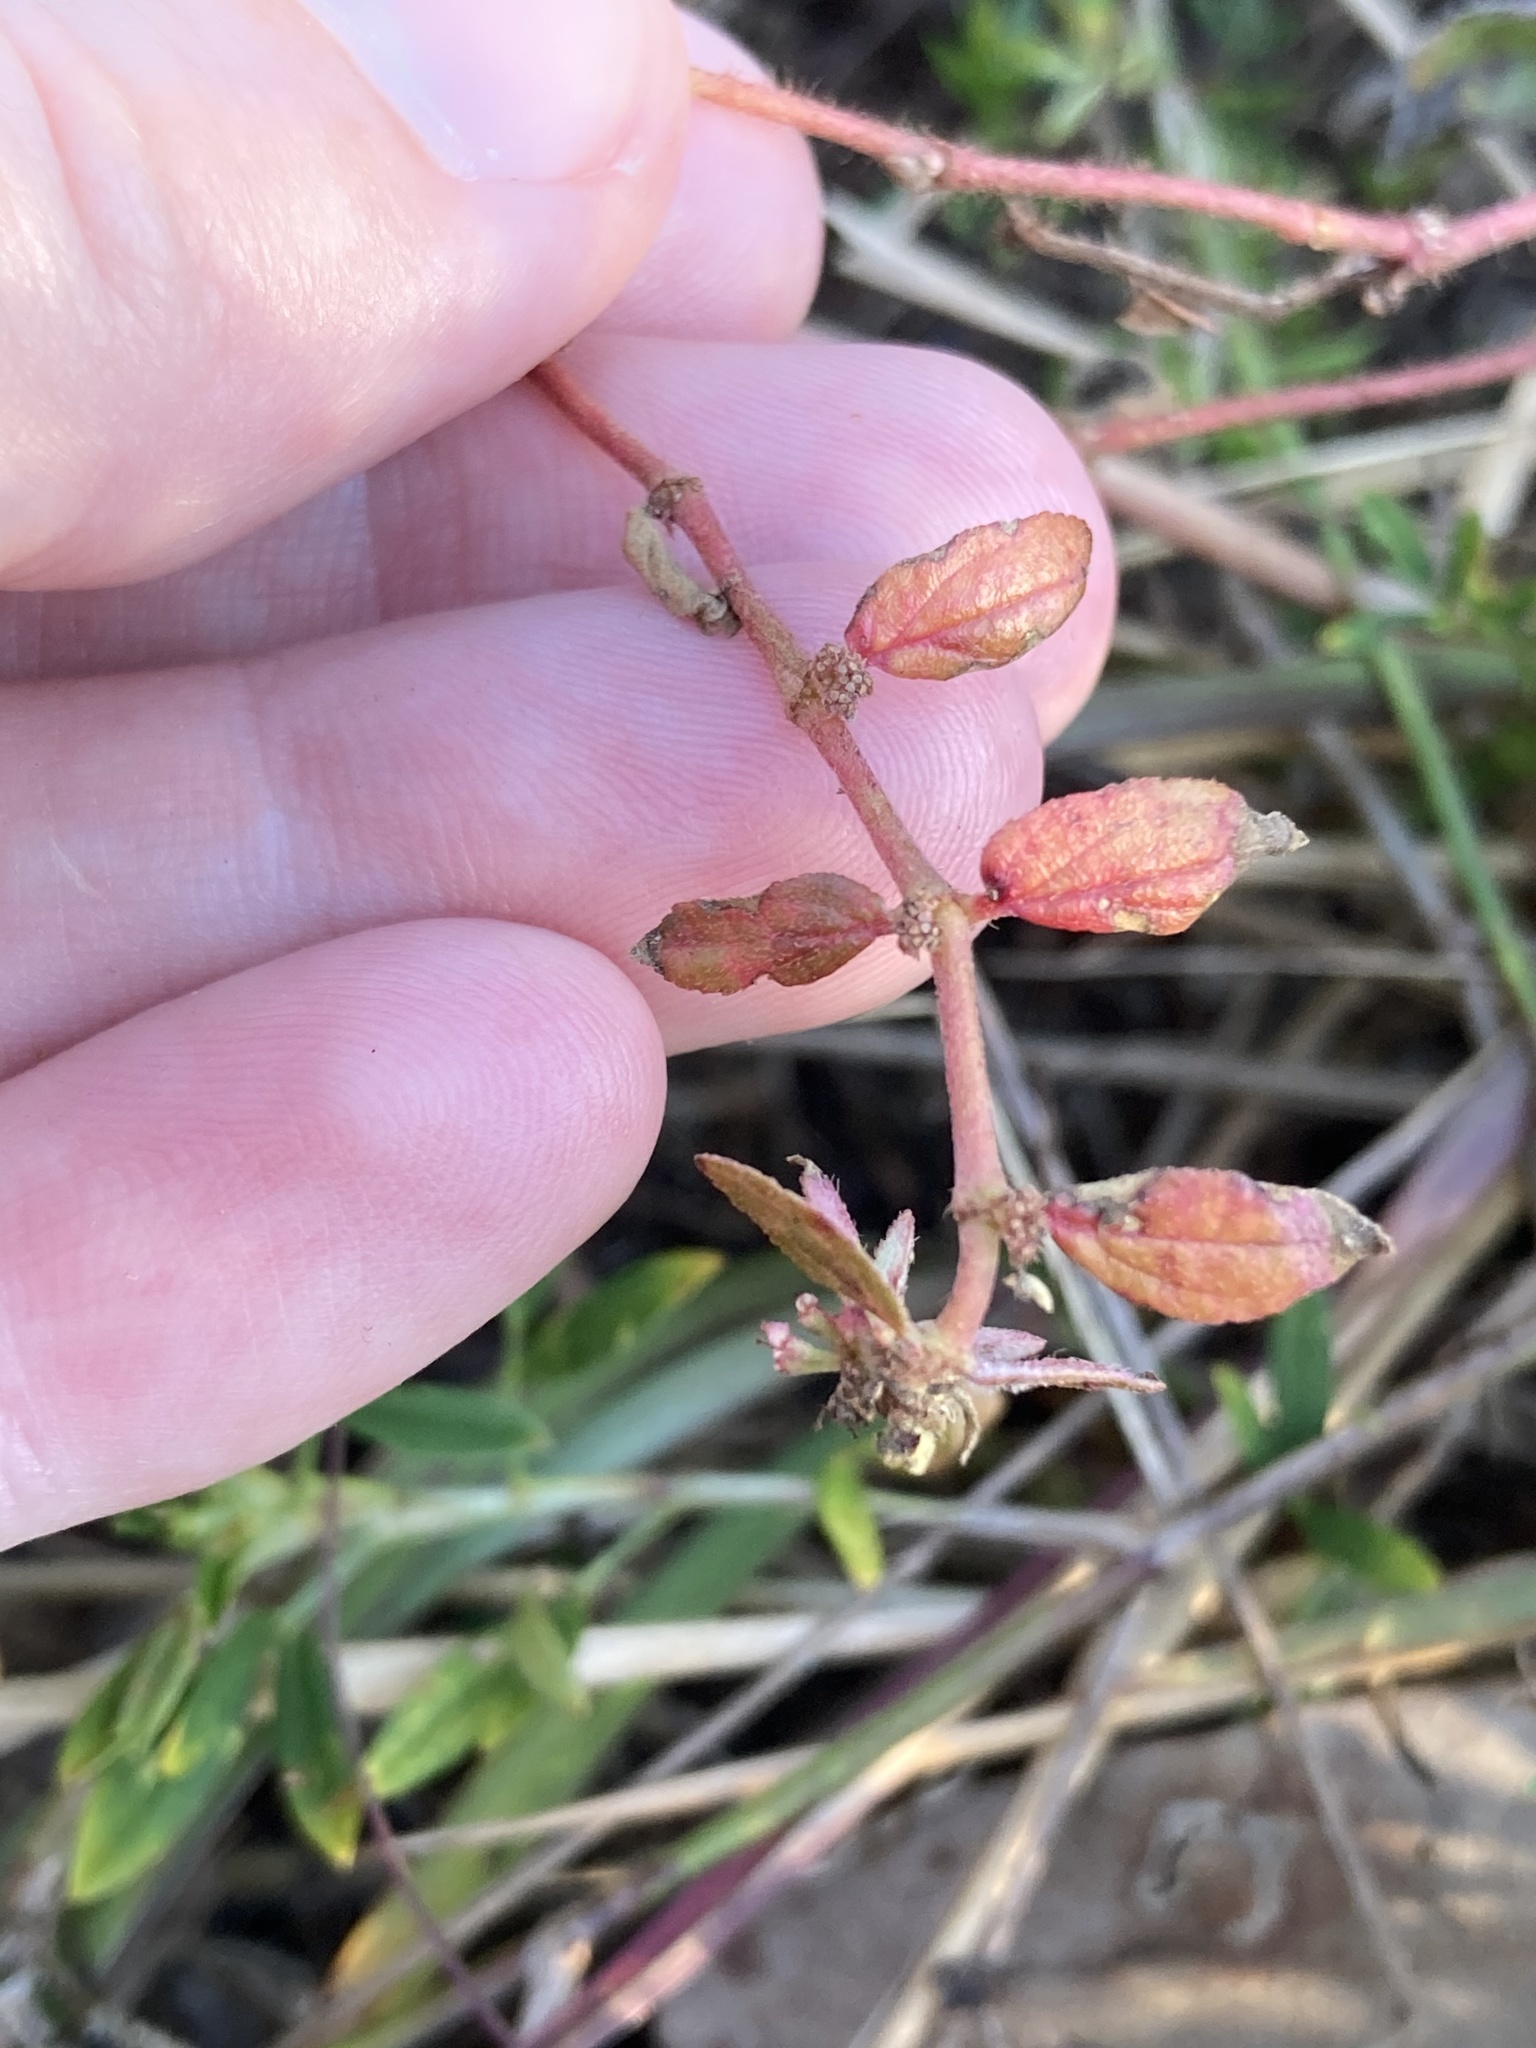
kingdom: Plantae
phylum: Tracheophyta
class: Magnoliopsida
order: Malpighiales
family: Euphorbiaceae
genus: Euphorbia
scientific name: Euphorbia hirta
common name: Pillpod sandmat
